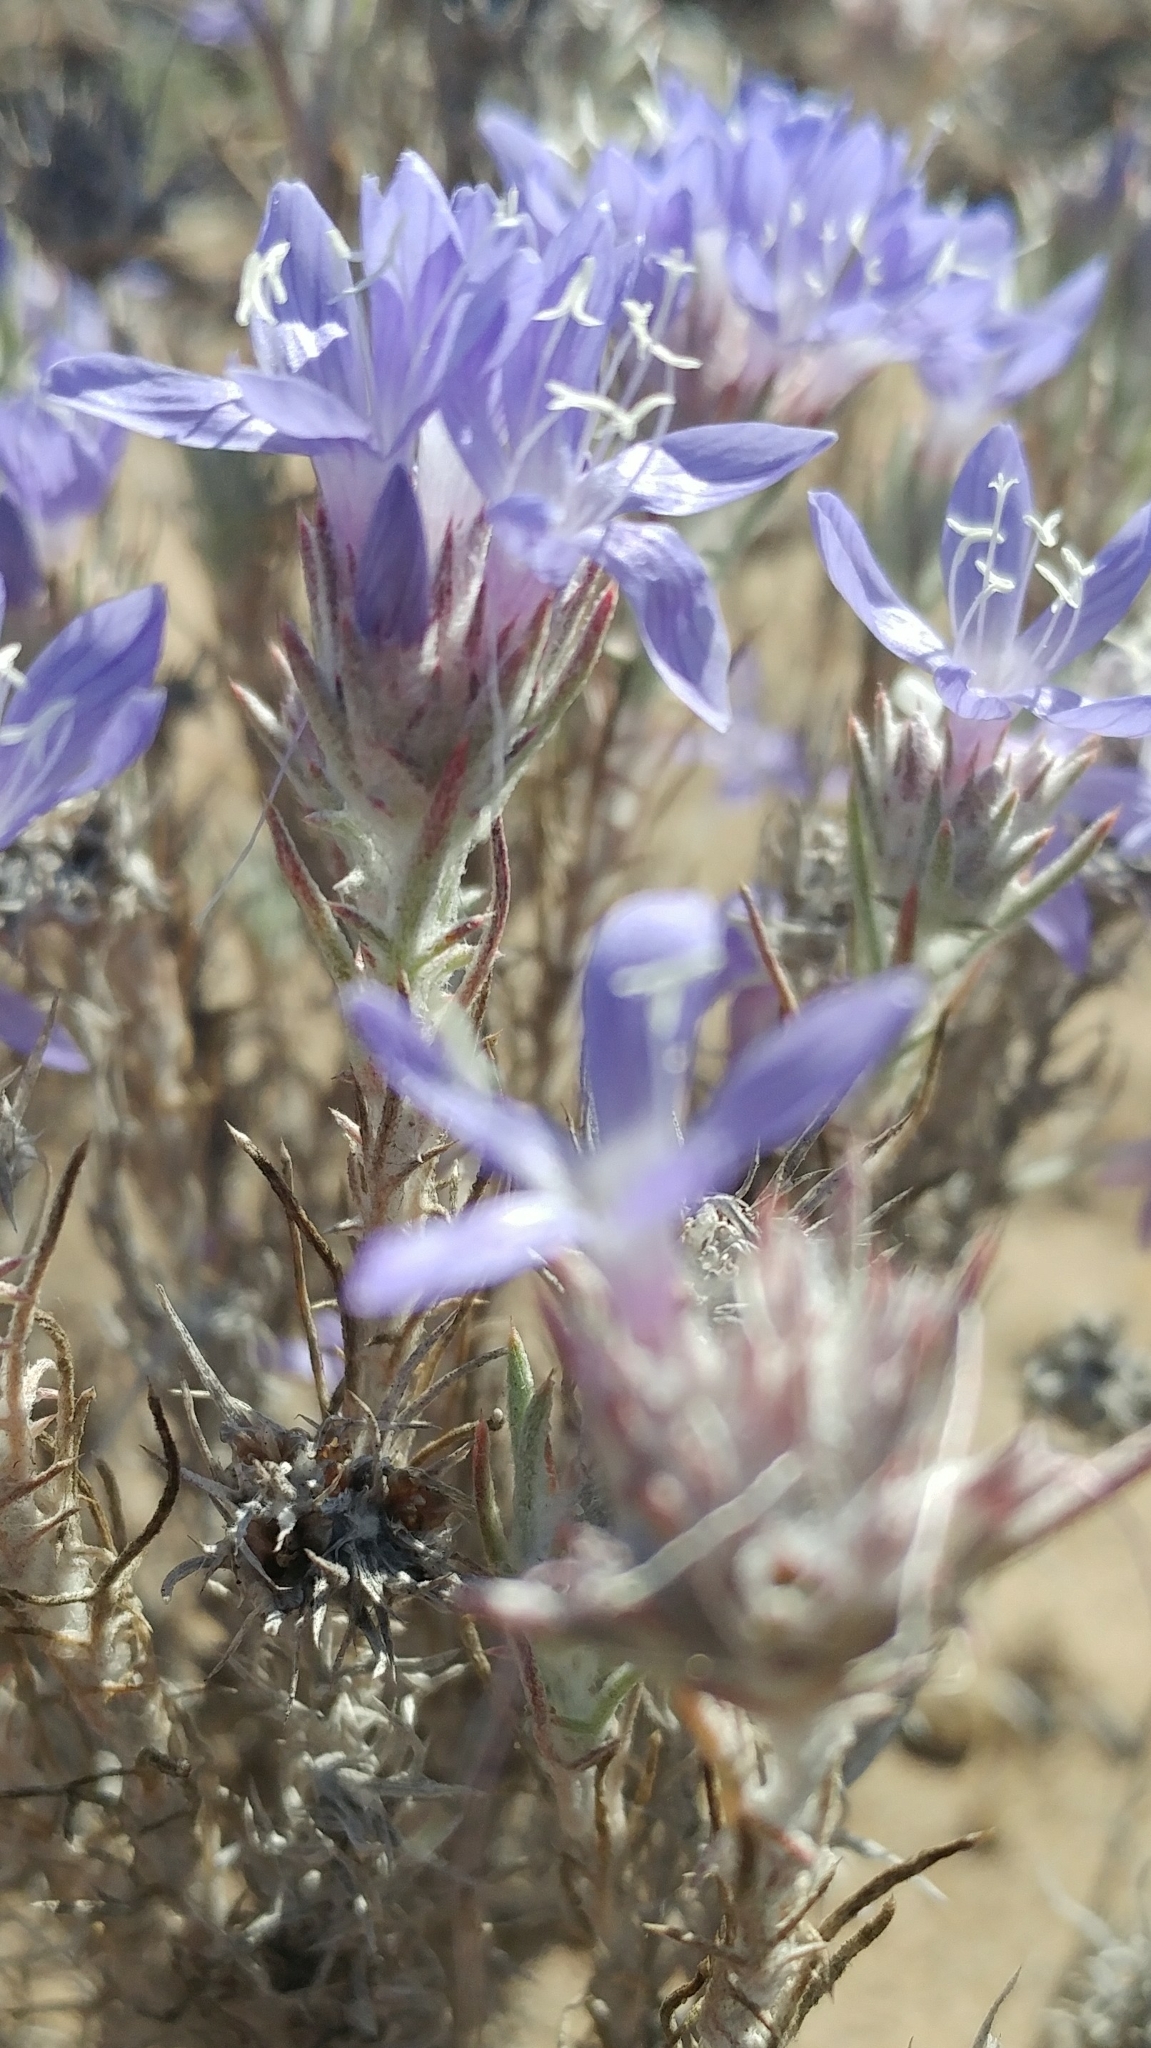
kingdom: Plantae
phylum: Tracheophyta
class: Magnoliopsida
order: Ericales
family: Polemoniaceae
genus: Eriastrum
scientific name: Eriastrum densifolium
